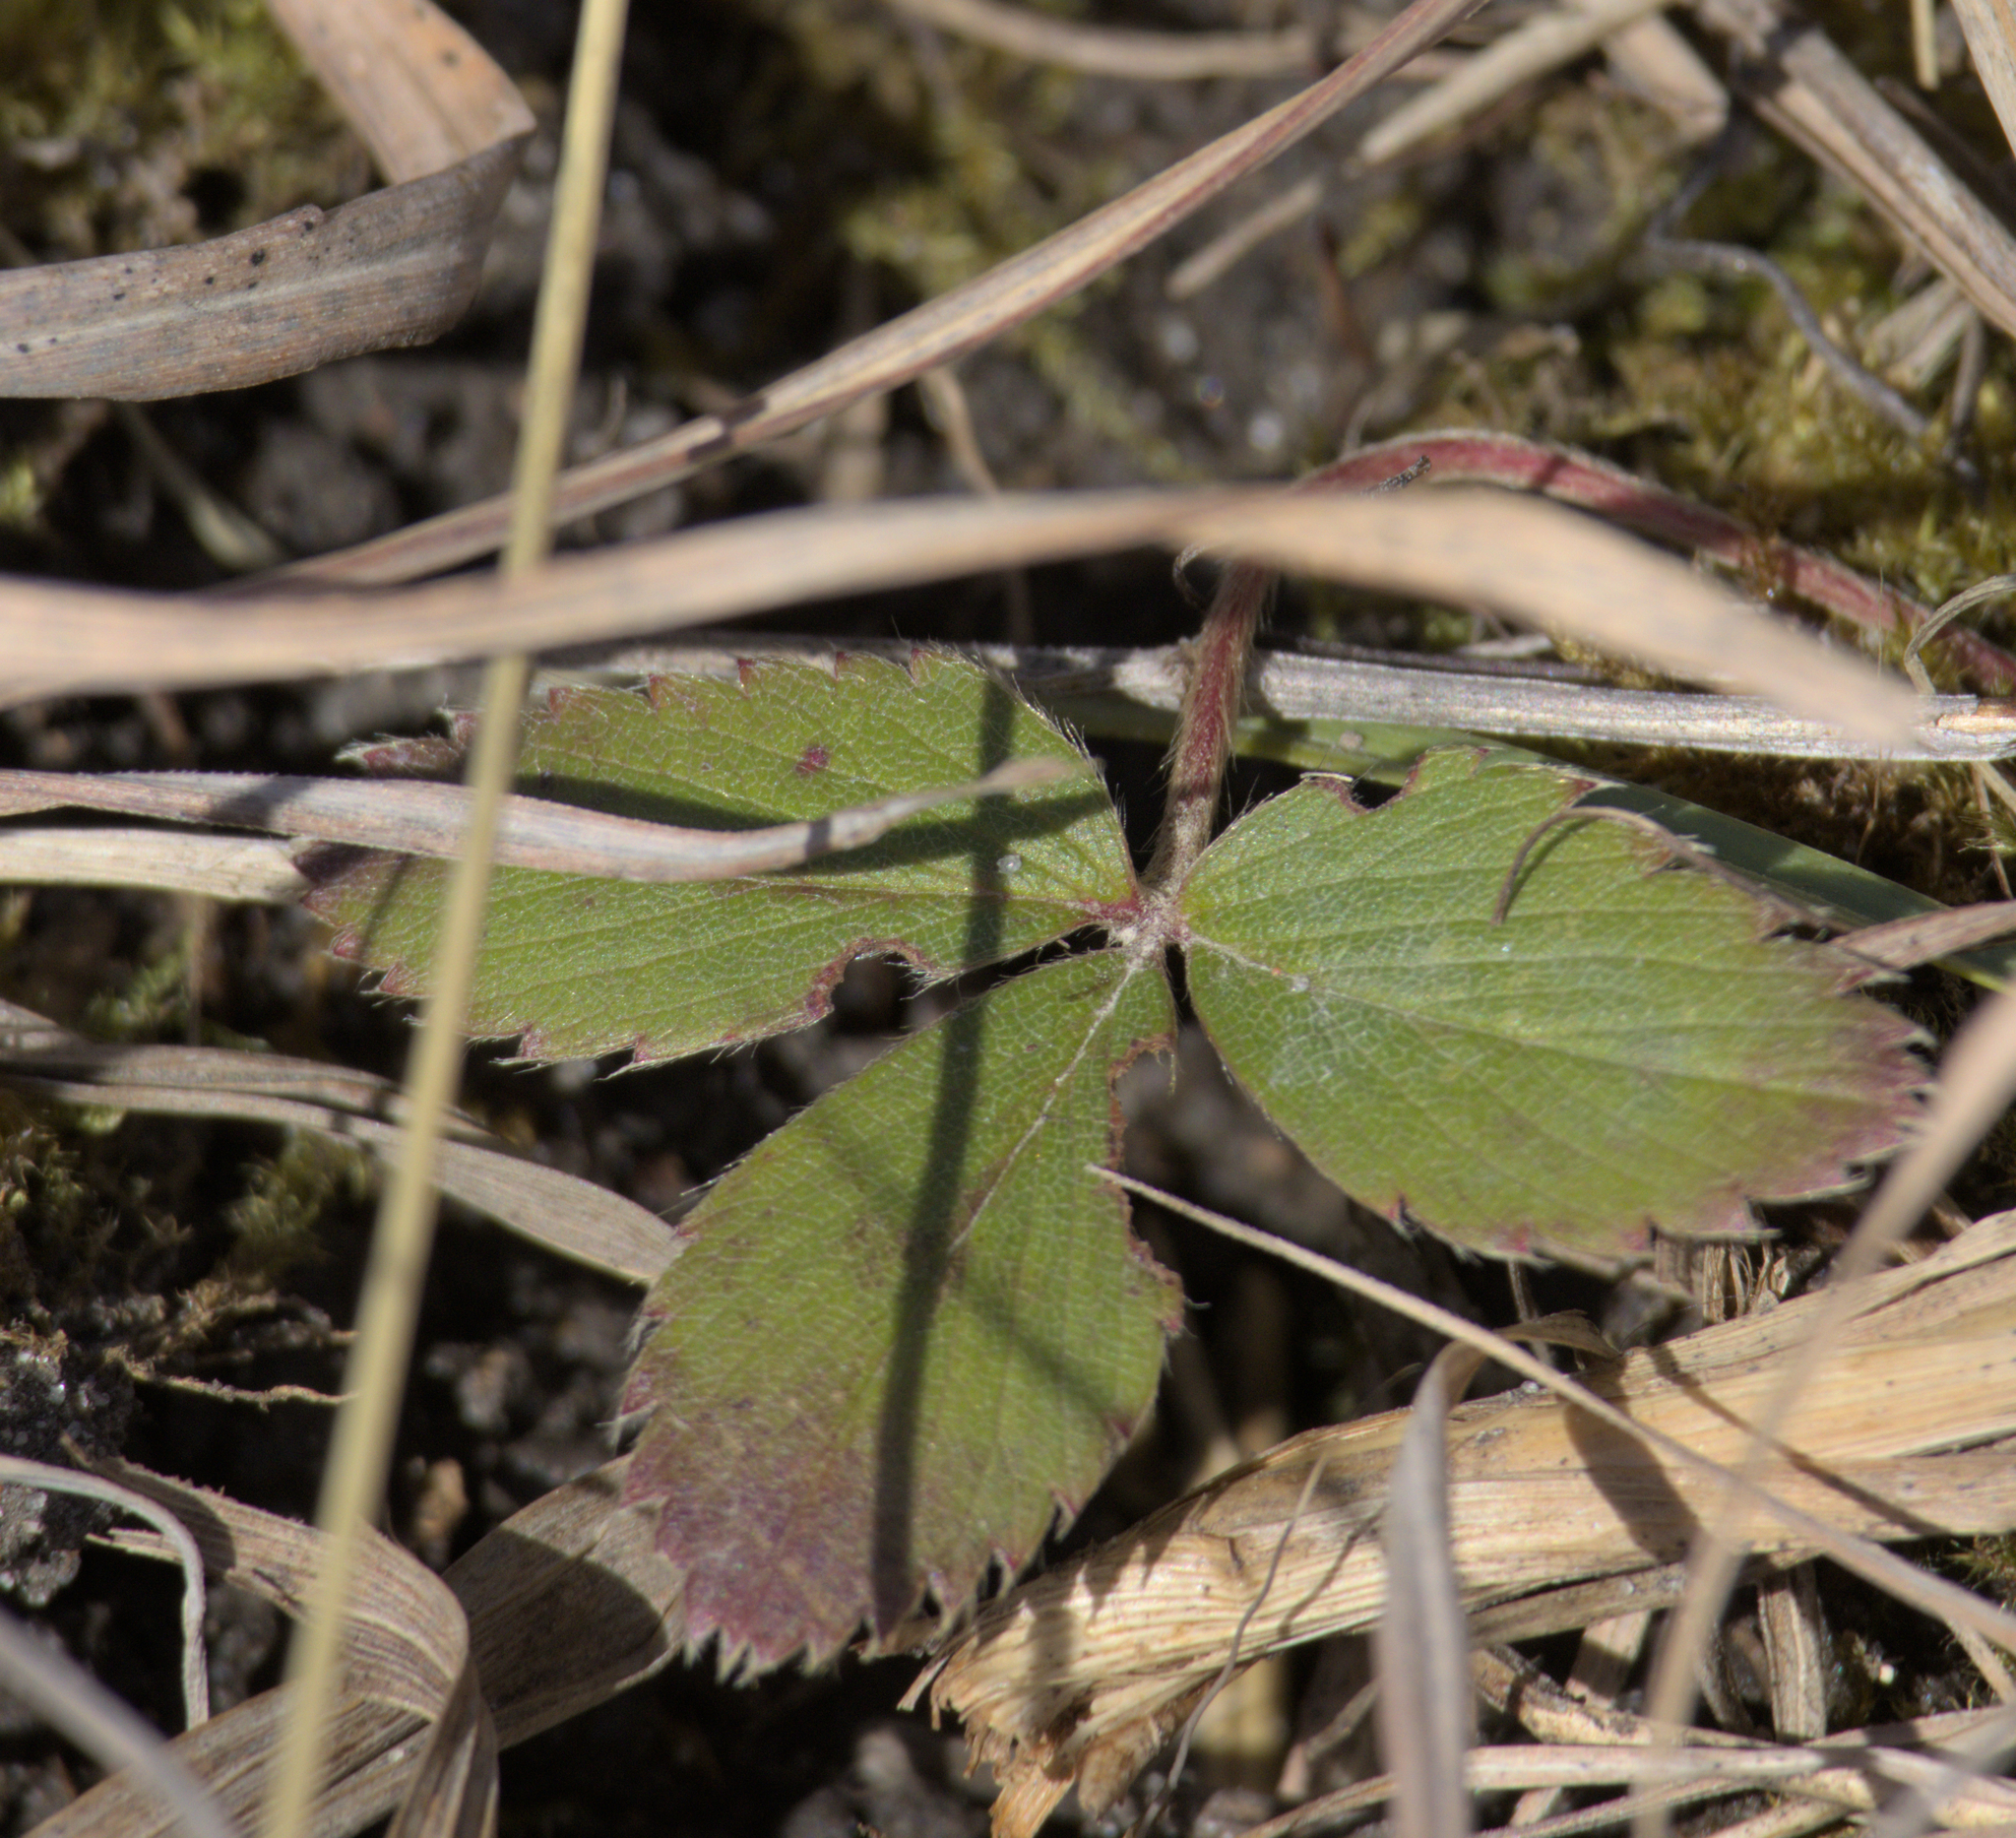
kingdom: Plantae
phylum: Tracheophyta
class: Magnoliopsida
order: Rosales
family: Rosaceae
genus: Fragaria
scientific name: Fragaria virginiana
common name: Thickleaved wild strawberry
